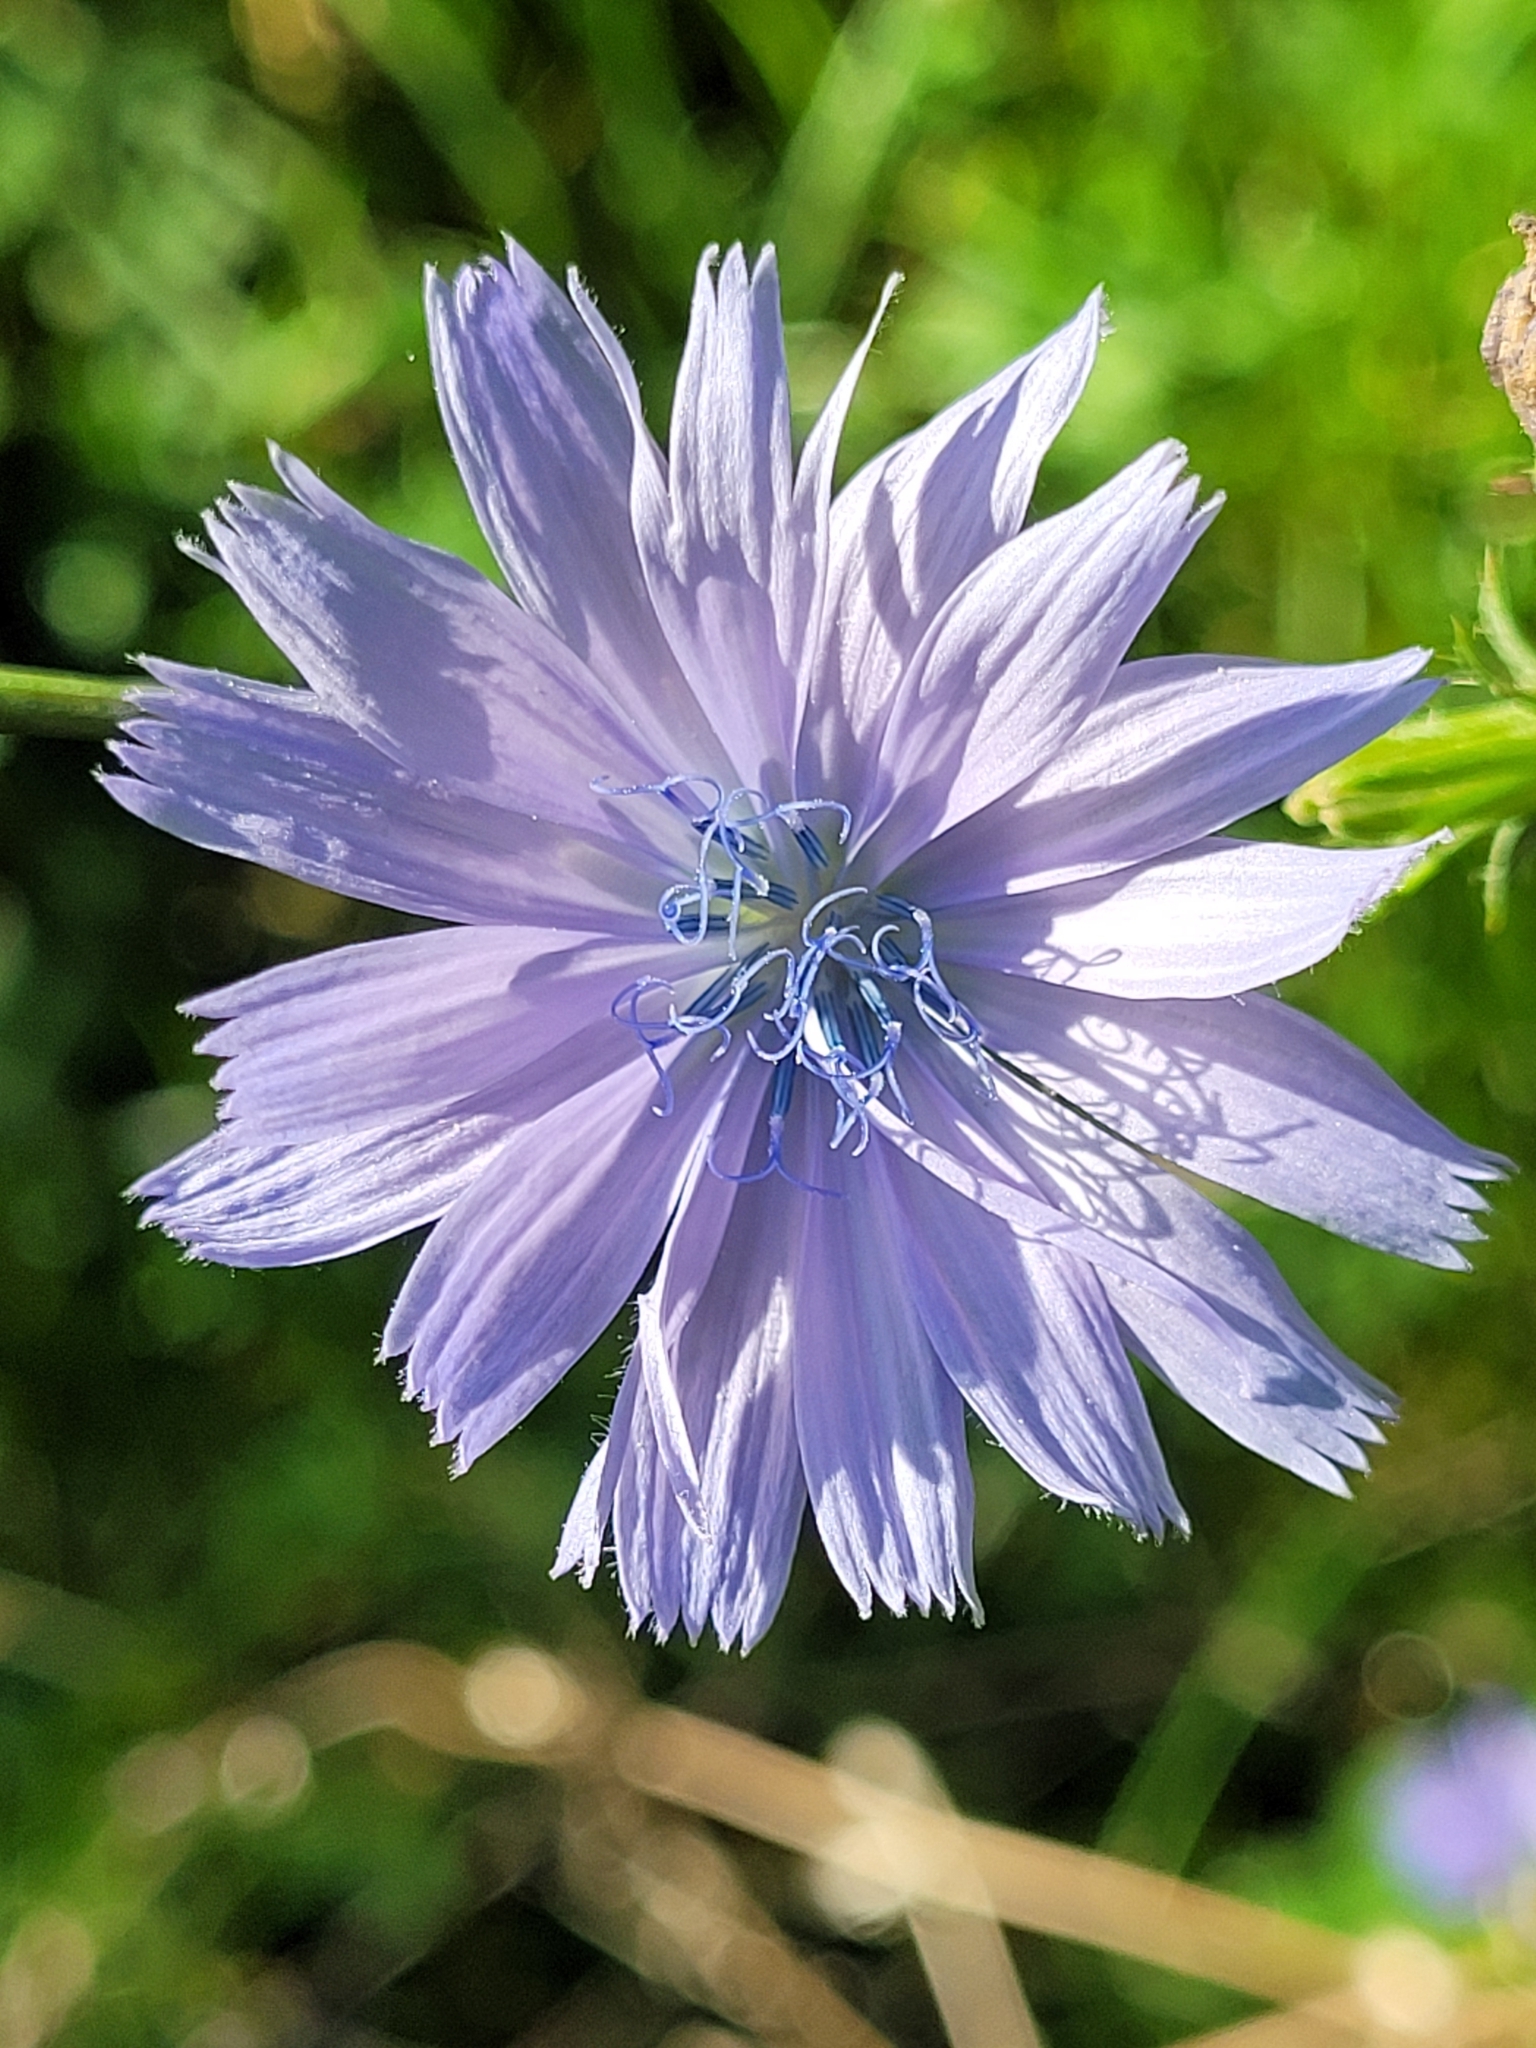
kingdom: Plantae
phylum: Tracheophyta
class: Magnoliopsida
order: Asterales
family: Asteraceae
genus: Cichorium
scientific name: Cichorium intybus
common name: Chicory
